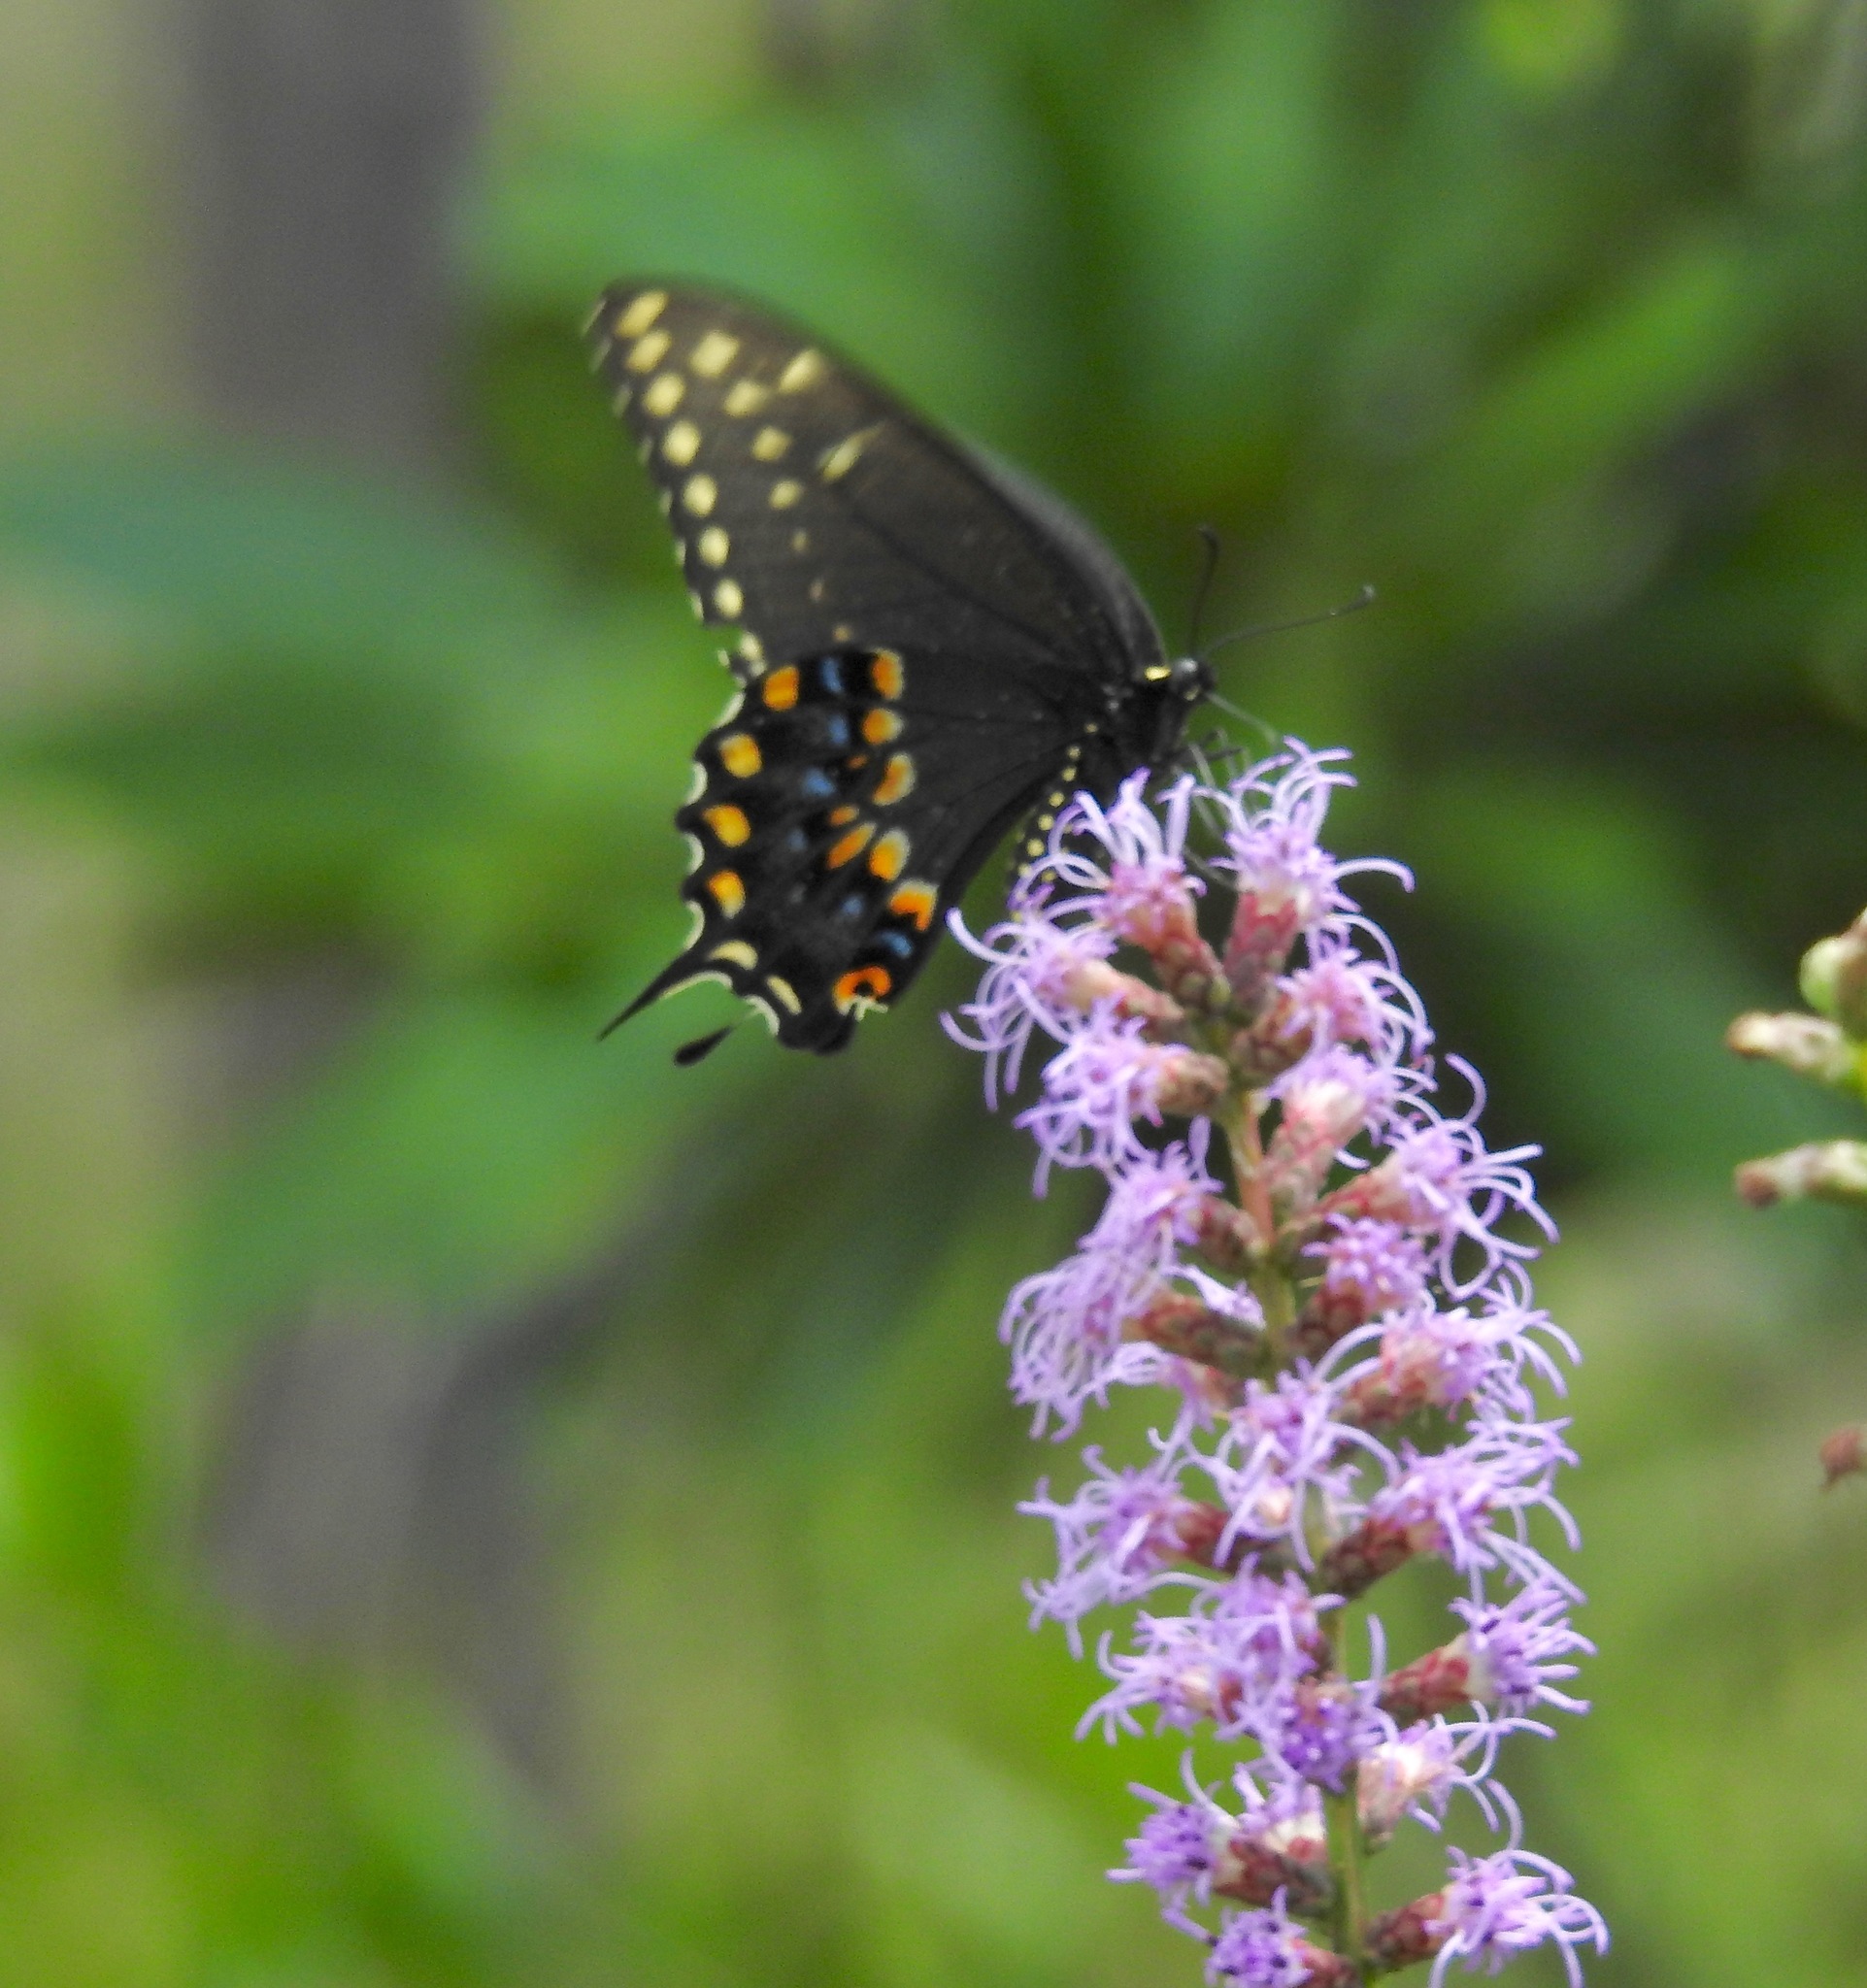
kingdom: Animalia
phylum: Arthropoda
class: Insecta
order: Lepidoptera
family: Papilionidae
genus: Papilio
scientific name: Papilio polyxenes
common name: Black swallowtail
